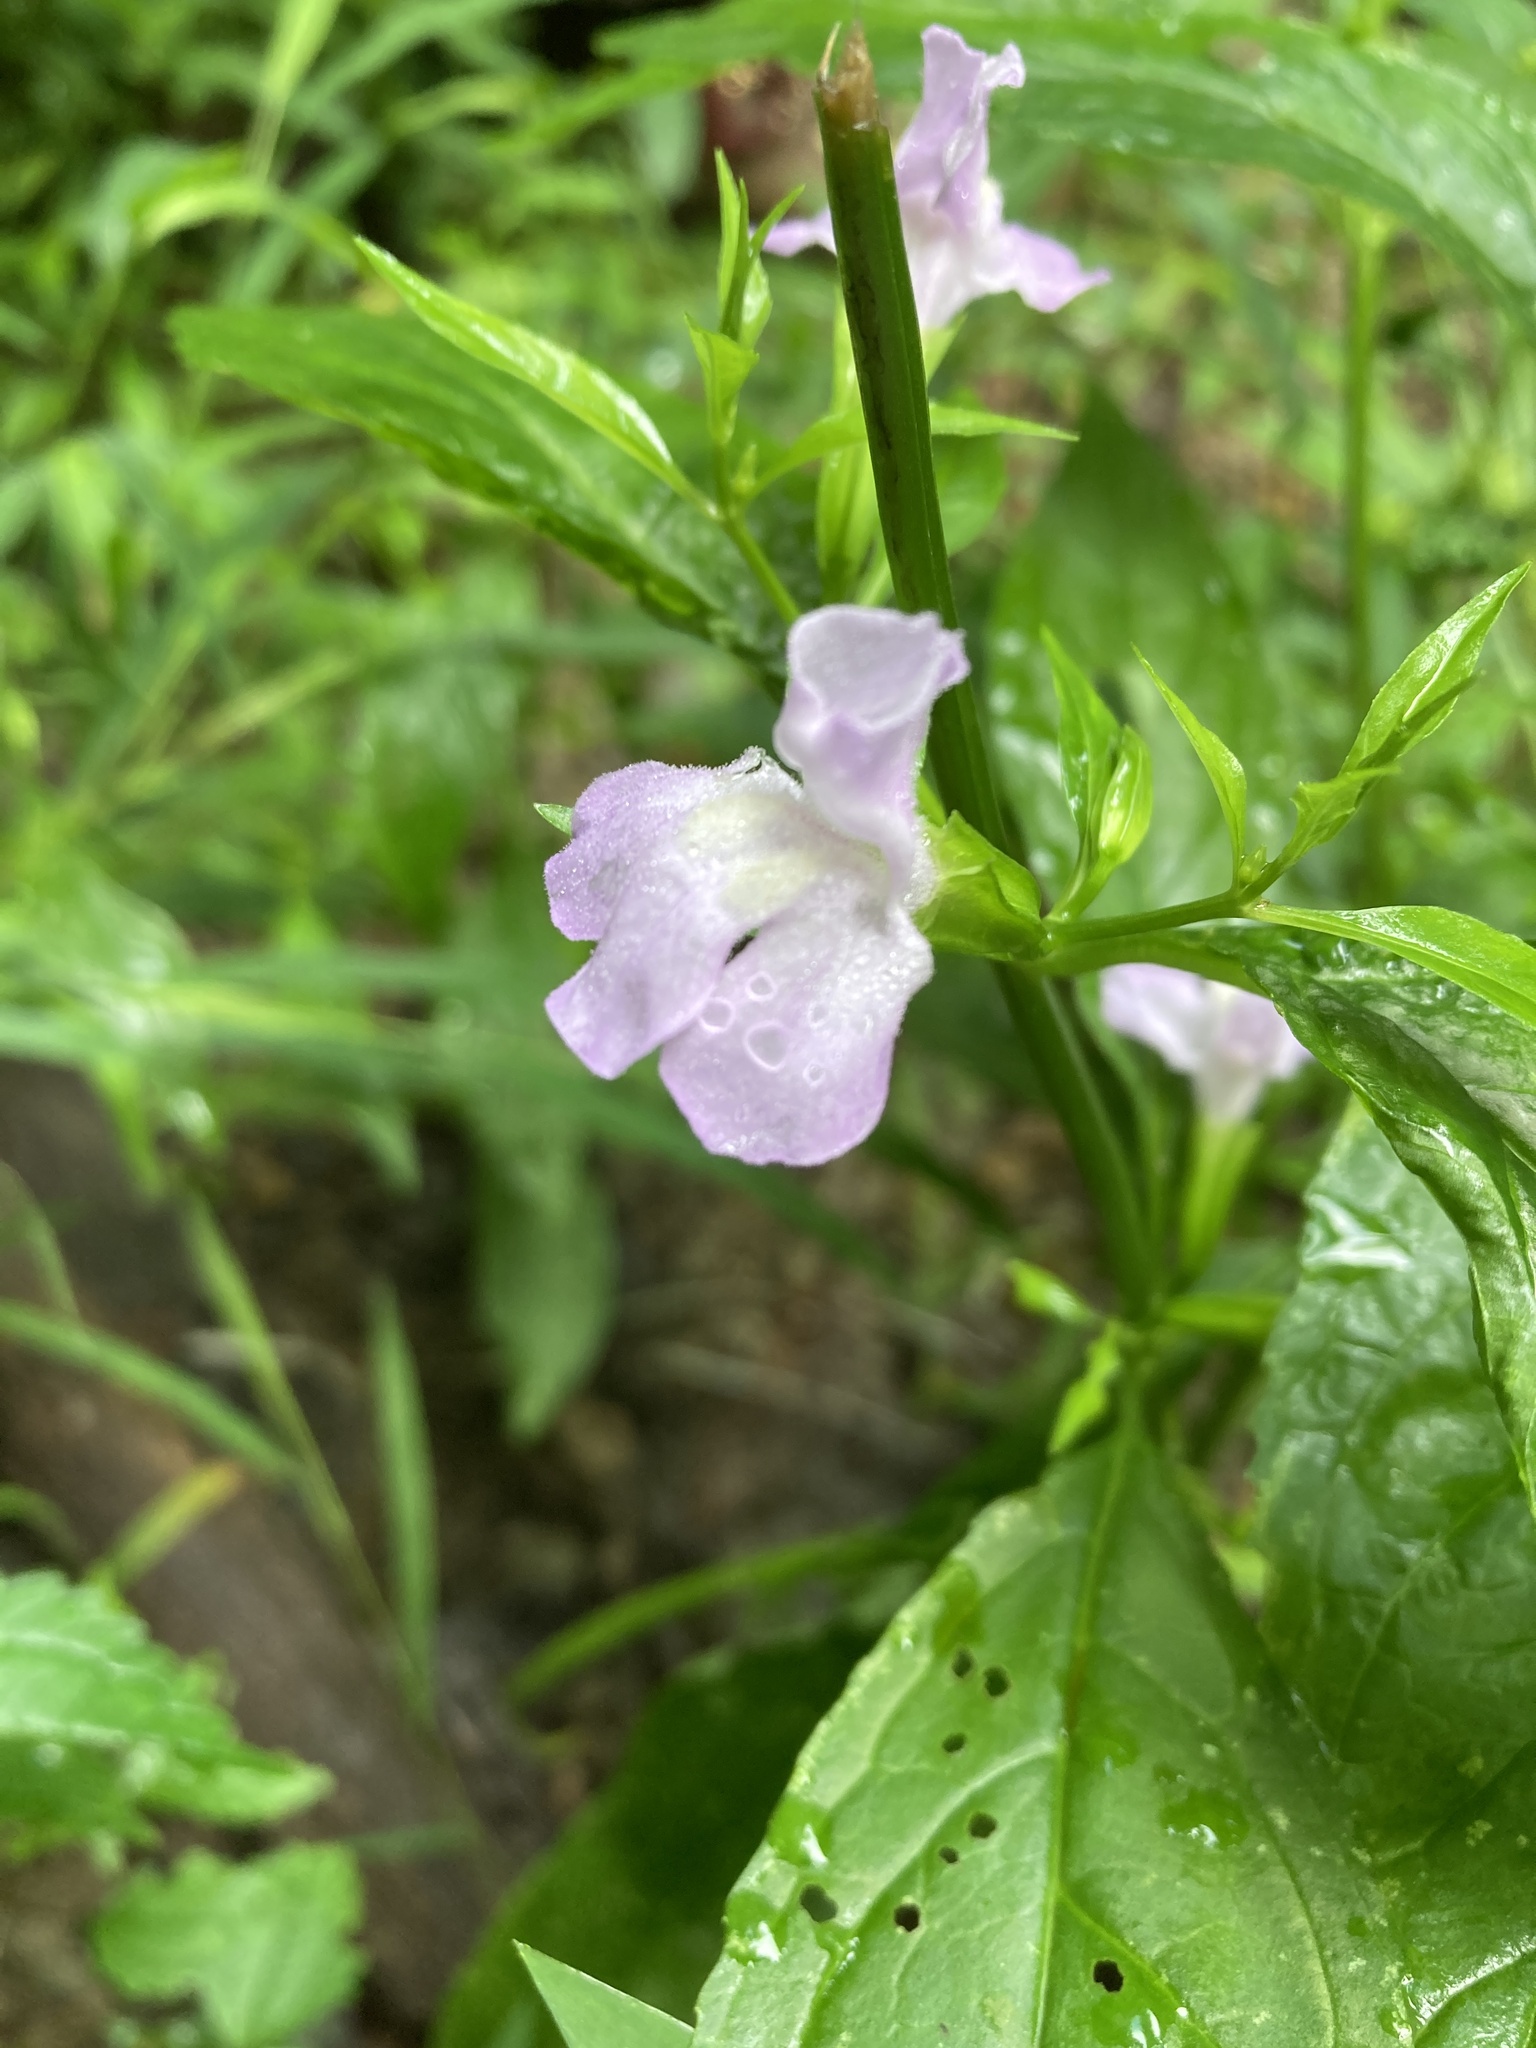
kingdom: Plantae
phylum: Tracheophyta
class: Magnoliopsida
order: Lamiales
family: Phrymaceae
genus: Mimulus
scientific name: Mimulus alatus
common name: Sharp-wing monkey-flower
